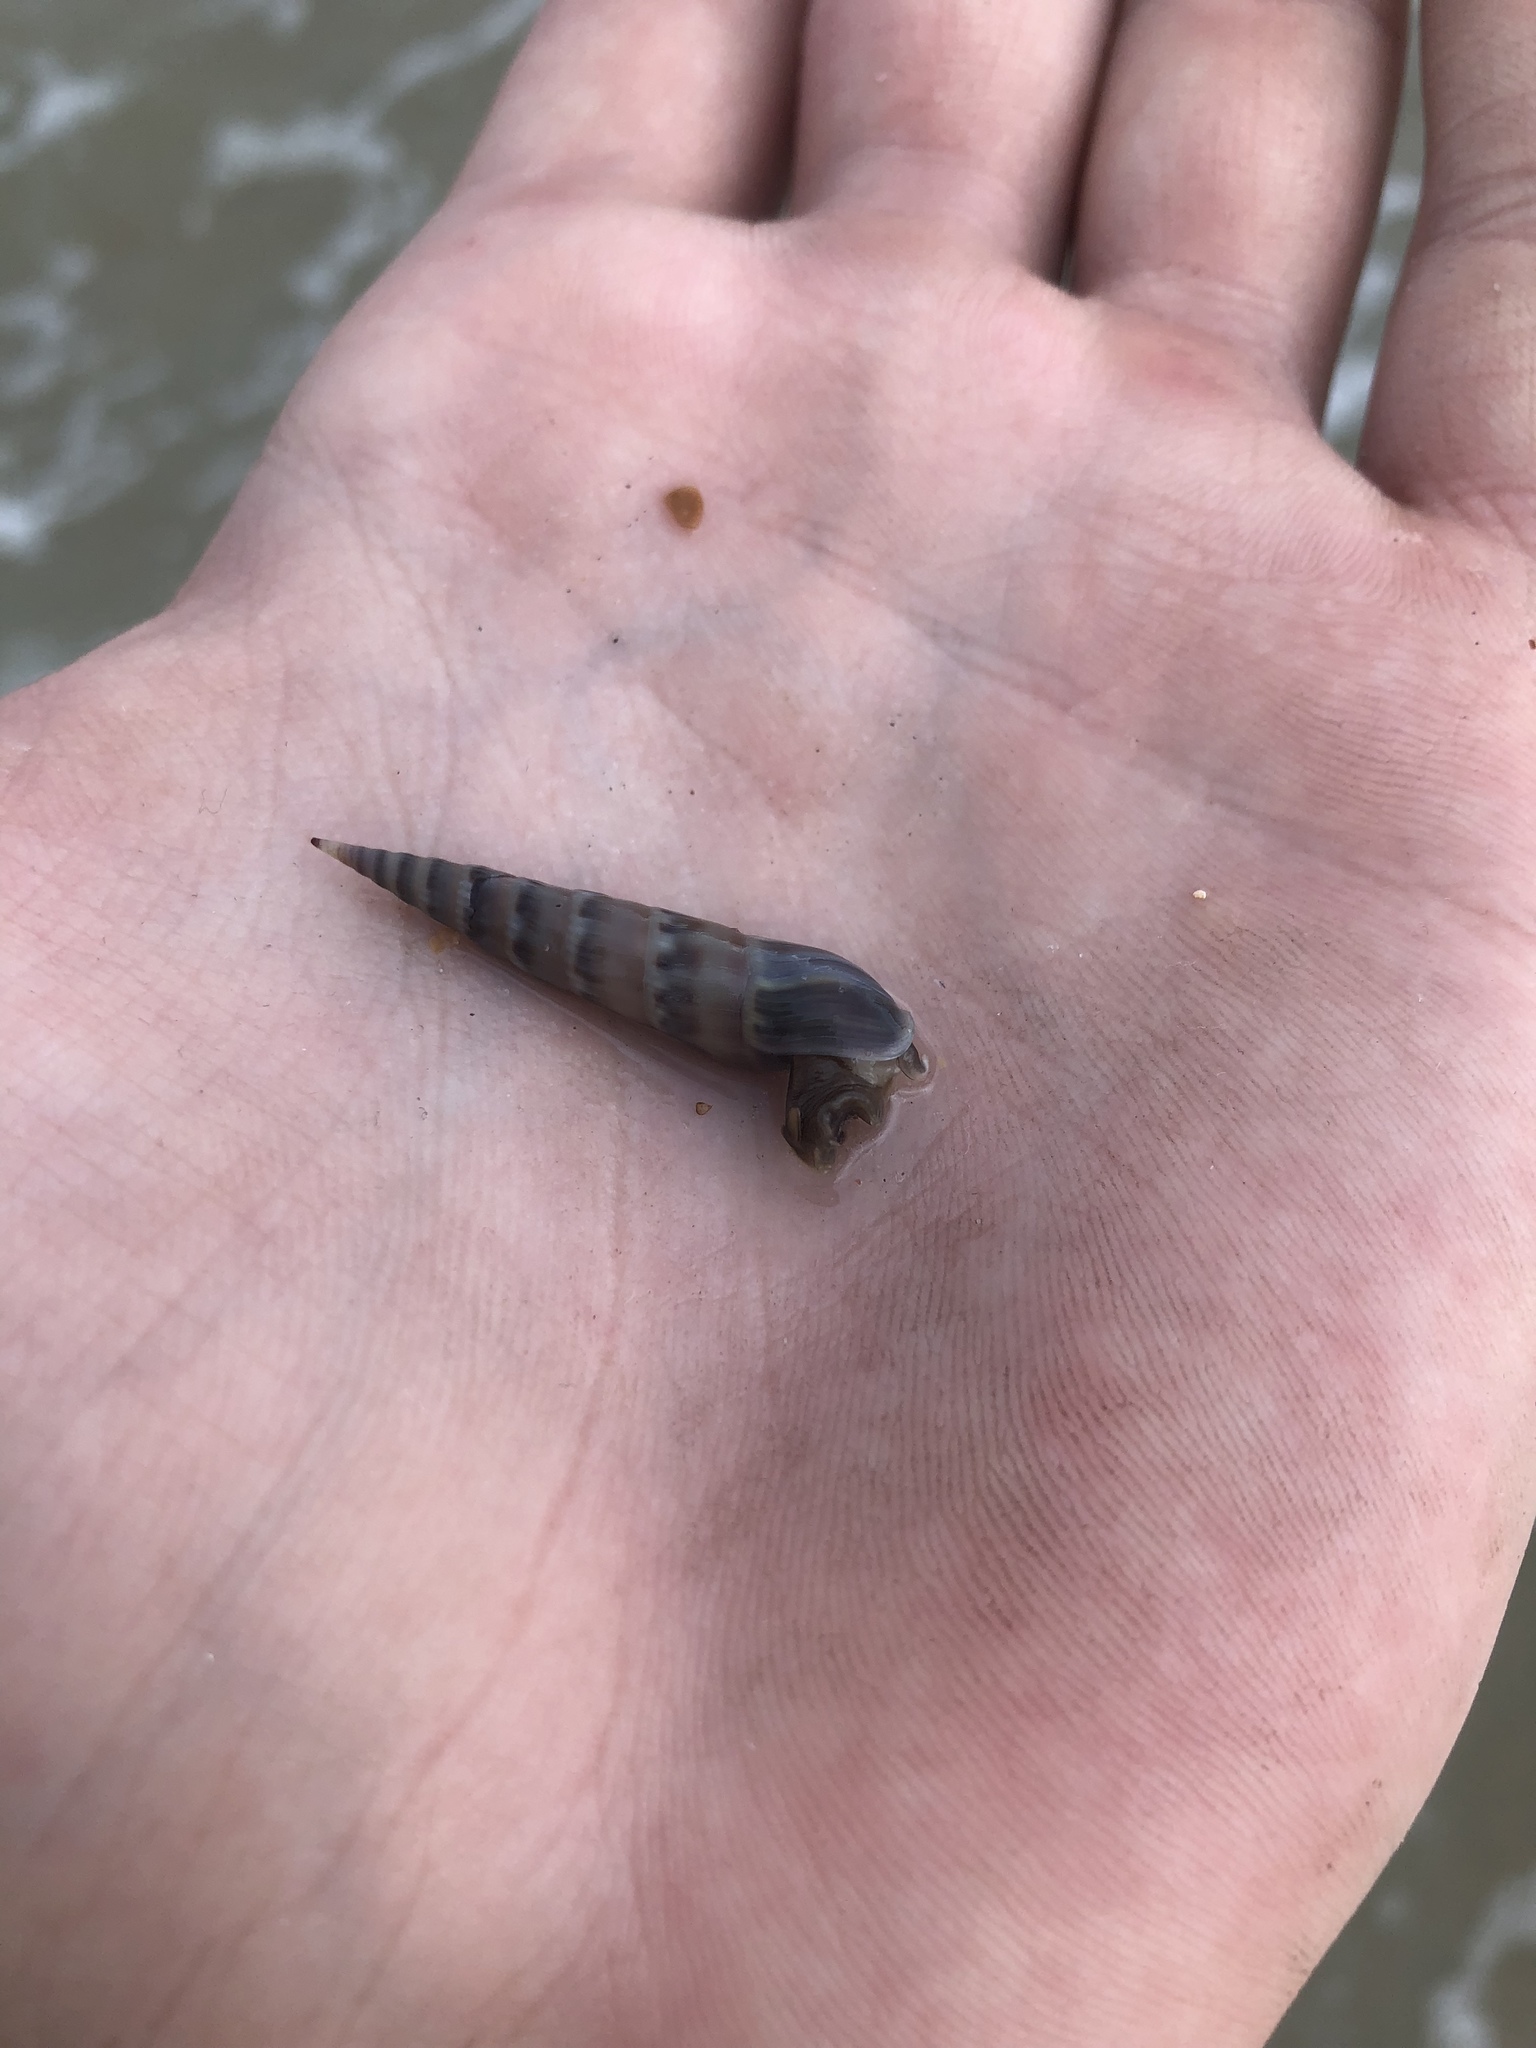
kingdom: Animalia
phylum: Mollusca
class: Gastropoda
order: Neogastropoda
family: Terebridae
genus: Hastula
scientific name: Hastula cinerea
